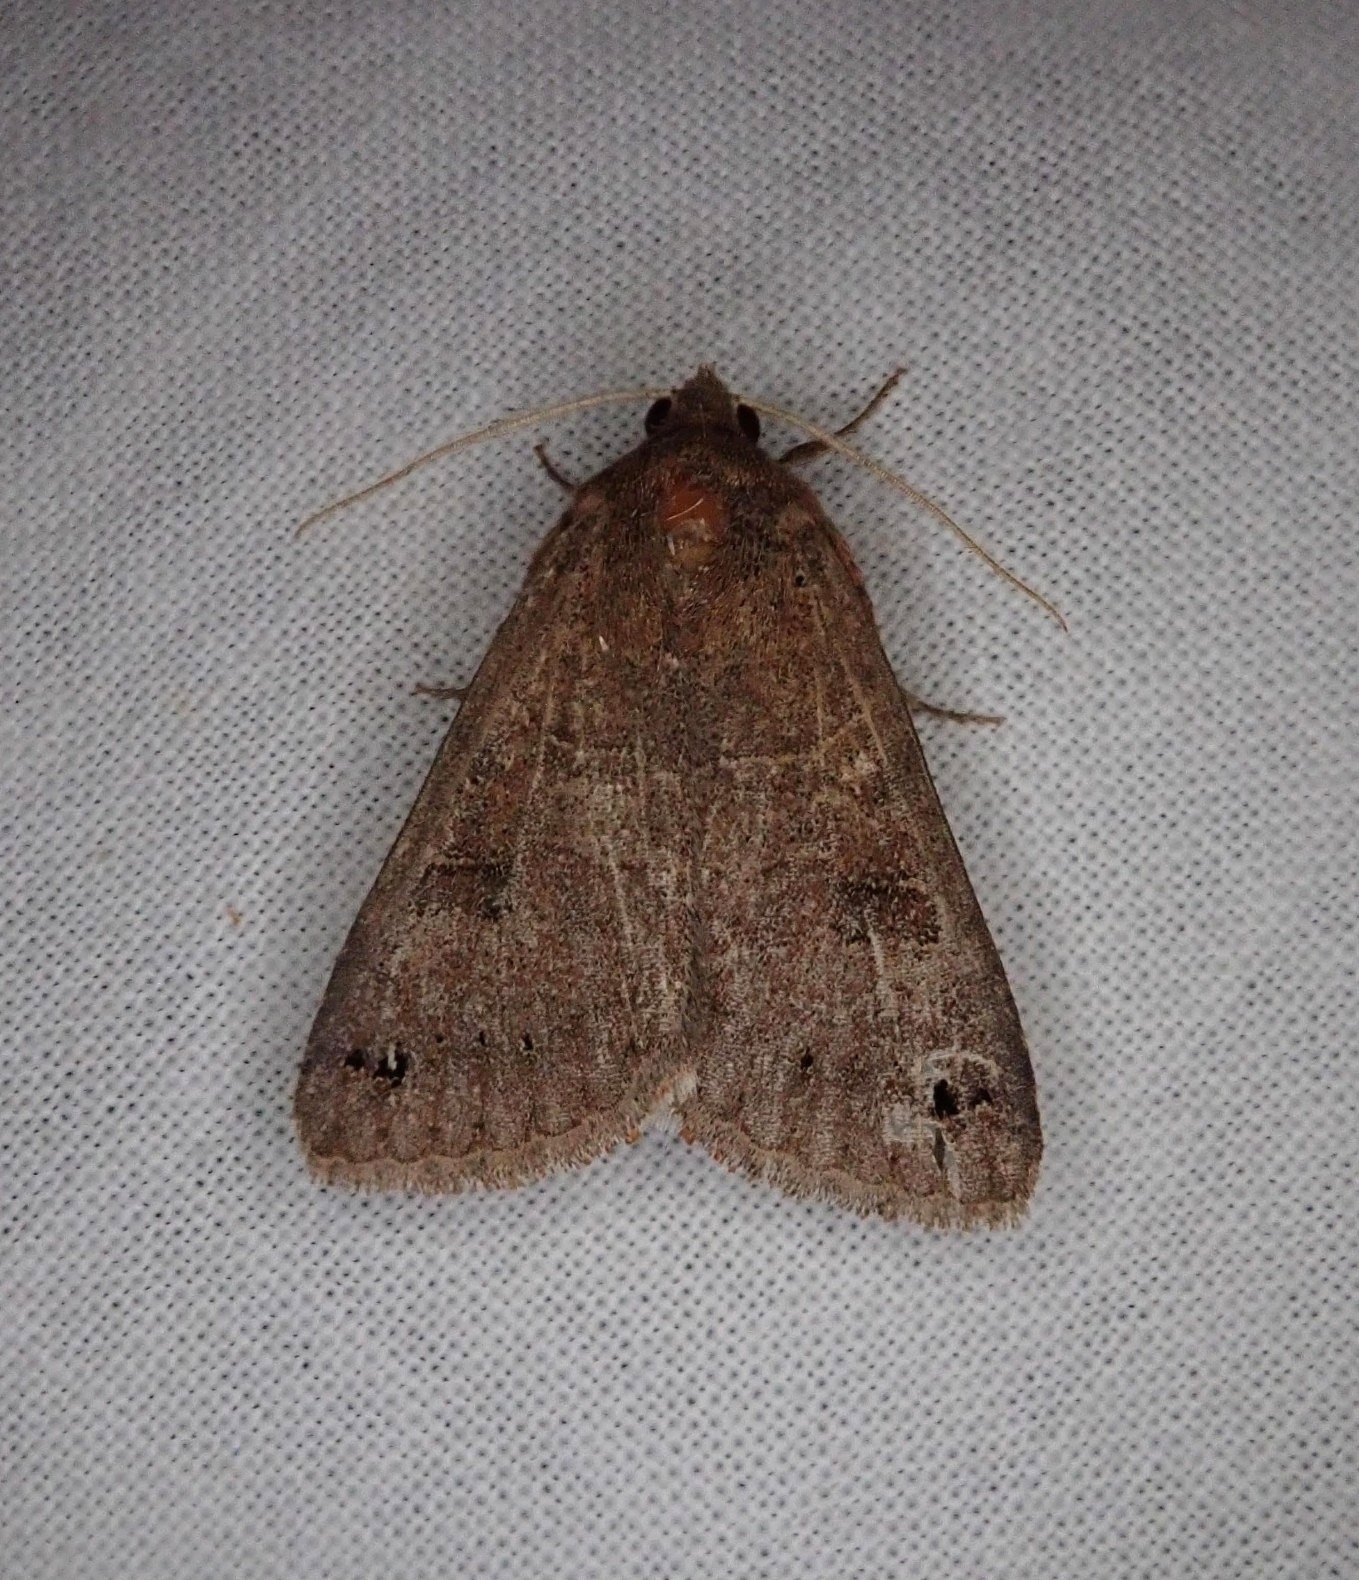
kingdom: Animalia
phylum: Arthropoda
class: Insecta
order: Lepidoptera
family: Erebidae
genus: Cissusa
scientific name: Cissusa spadix
